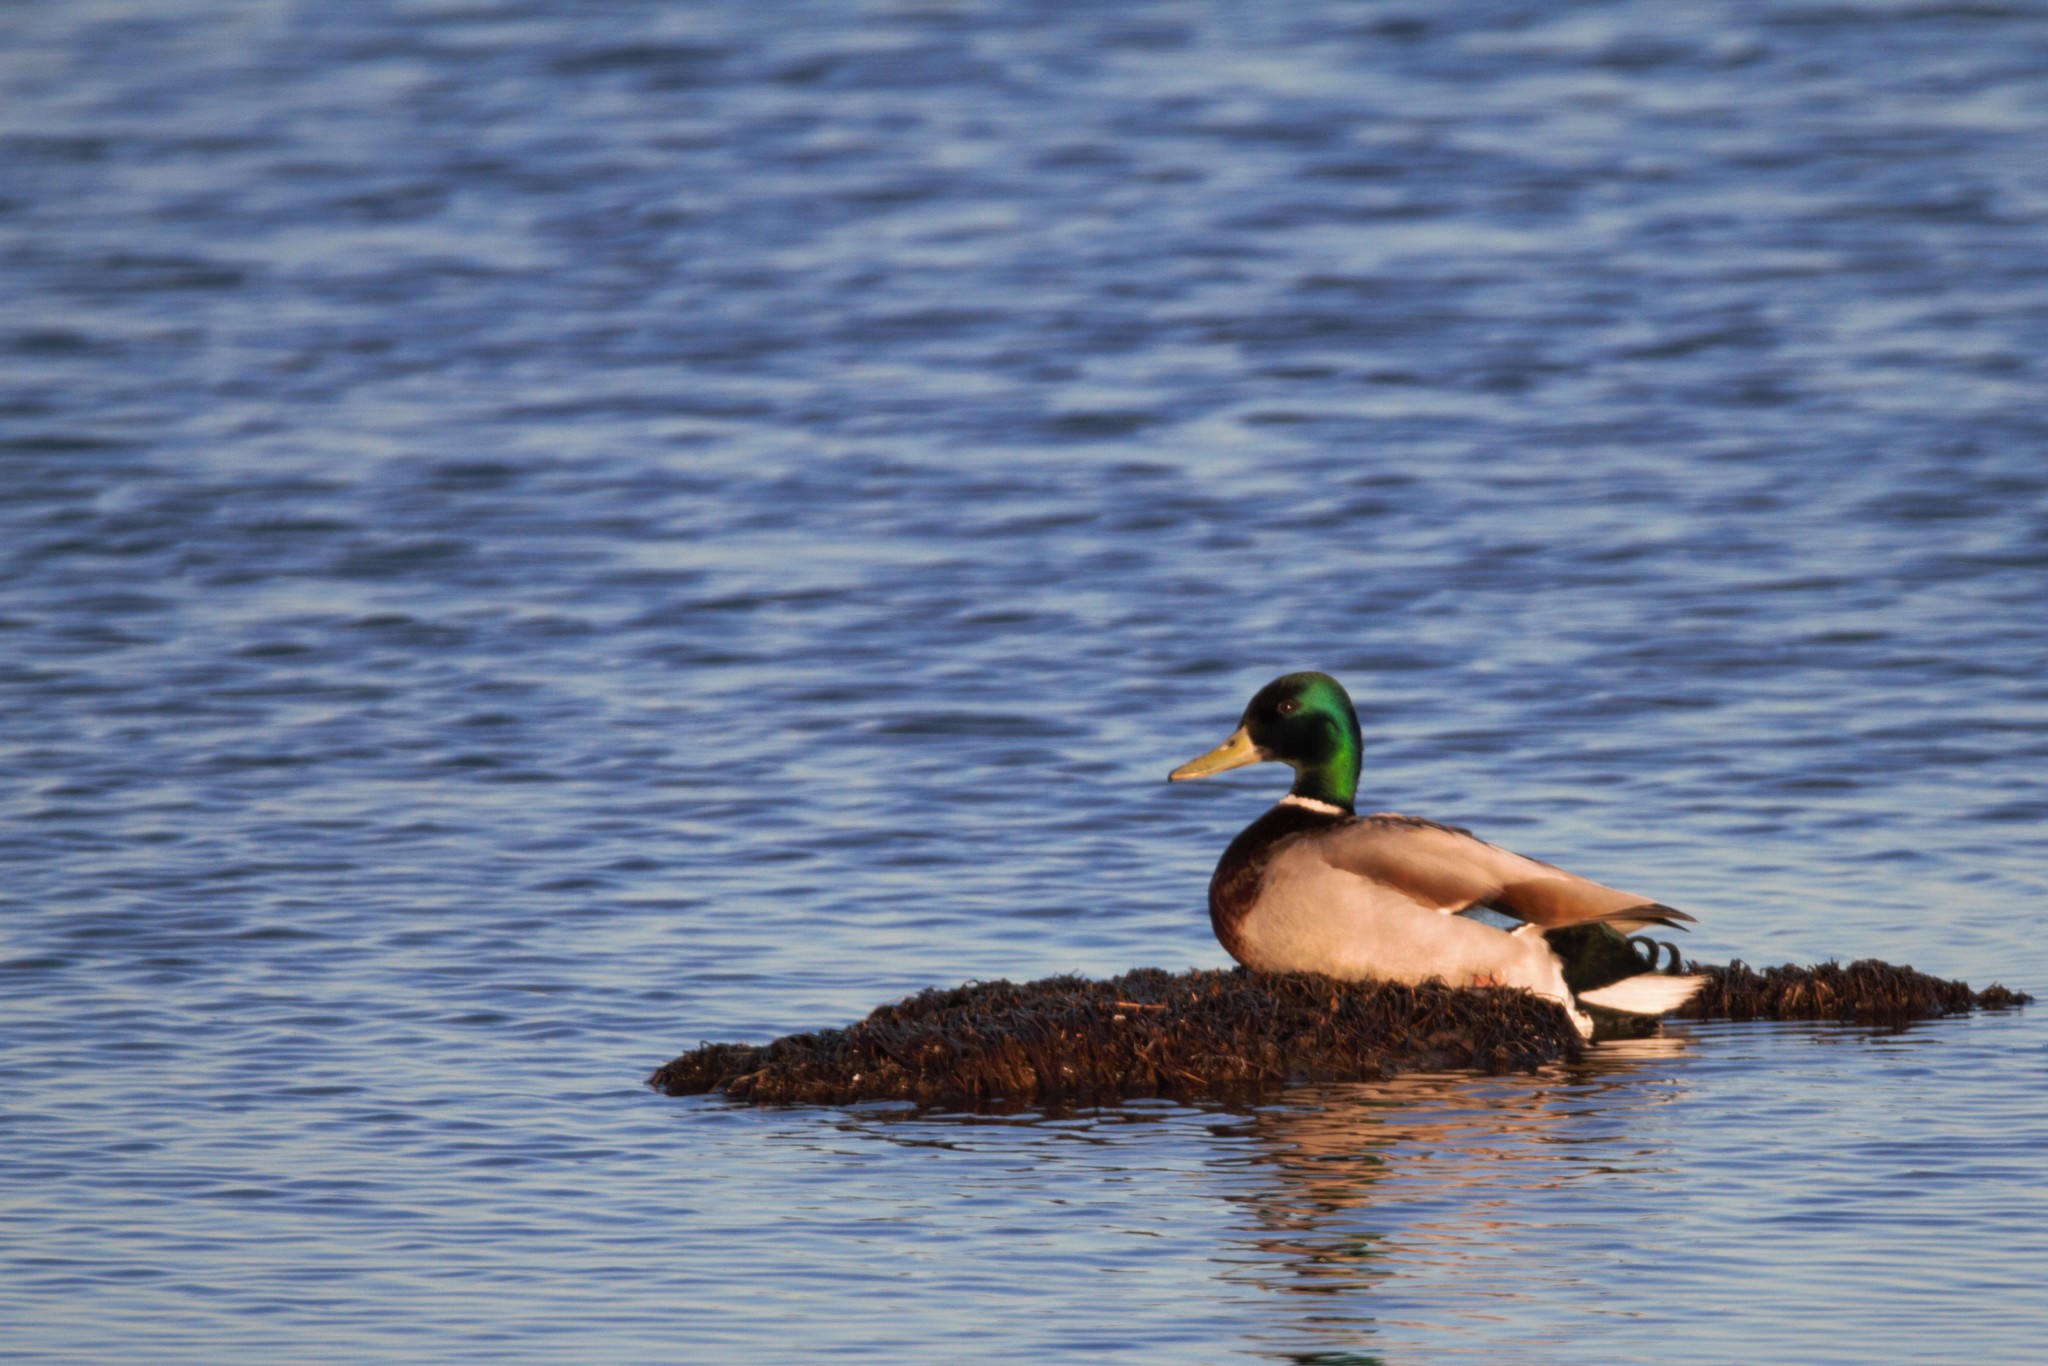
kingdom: Animalia
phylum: Chordata
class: Aves
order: Anseriformes
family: Anatidae
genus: Anas
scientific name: Anas platyrhynchos
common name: Mallard
